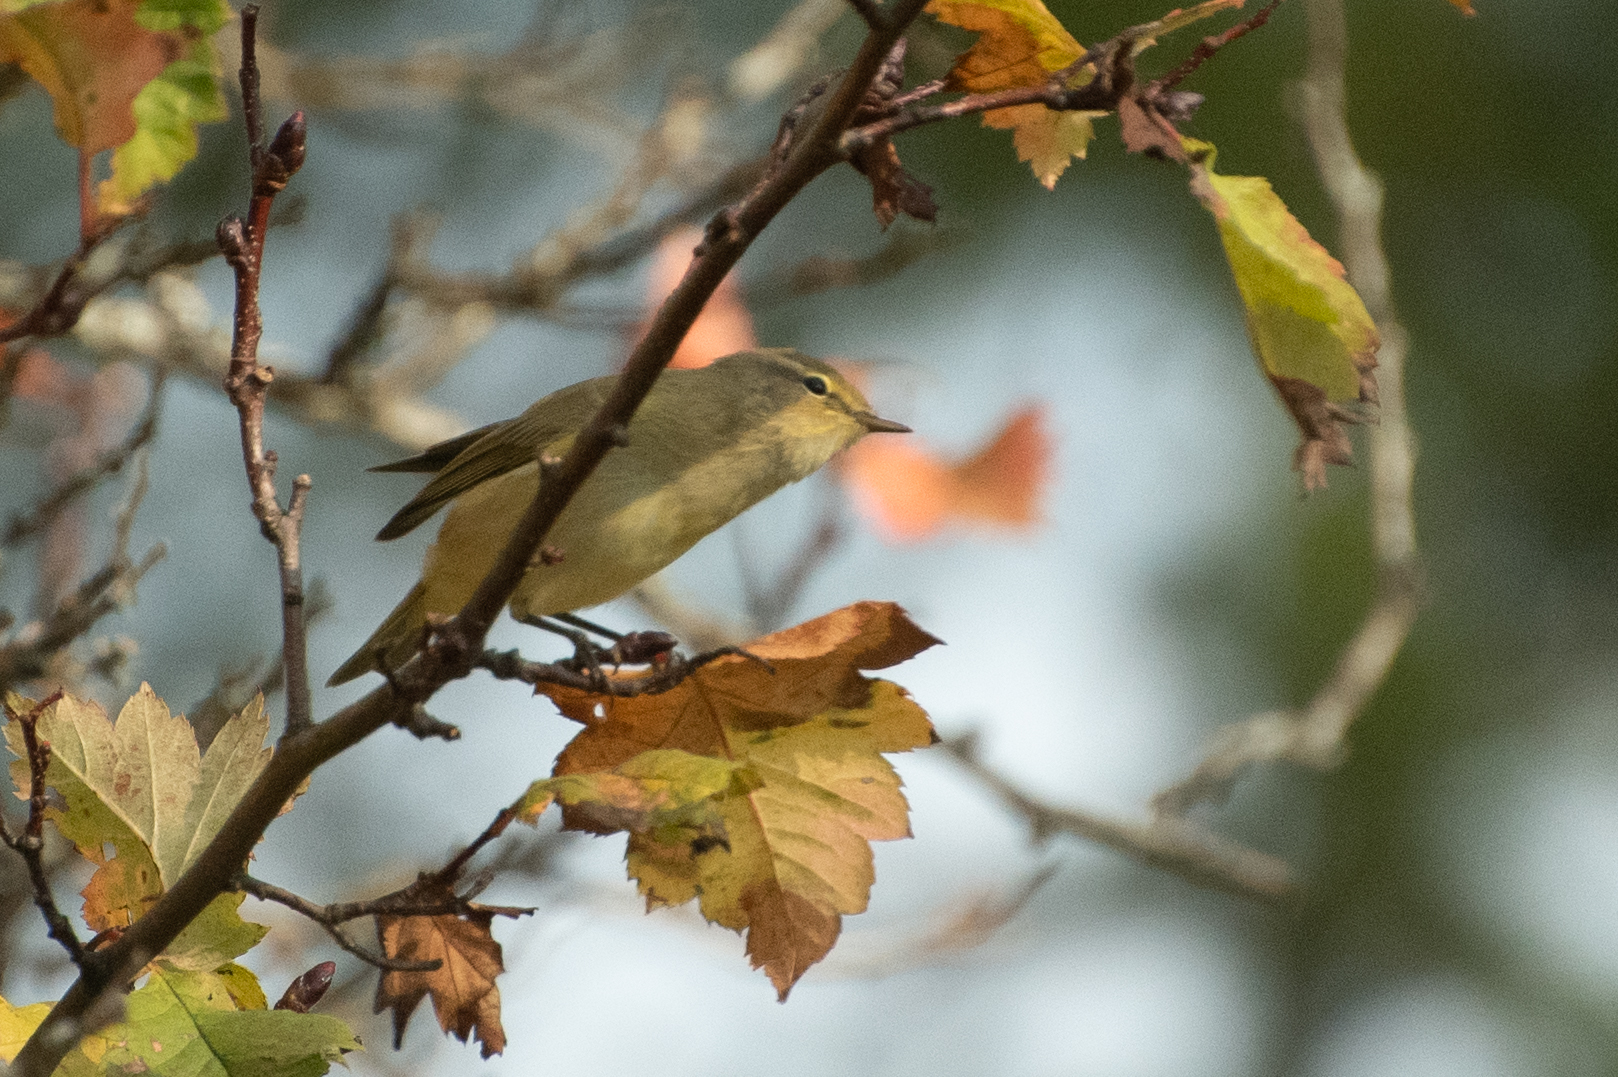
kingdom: Animalia
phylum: Chordata
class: Aves
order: Passeriformes
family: Phylloscopidae
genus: Phylloscopus
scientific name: Phylloscopus collybita
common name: Common chiffchaff
